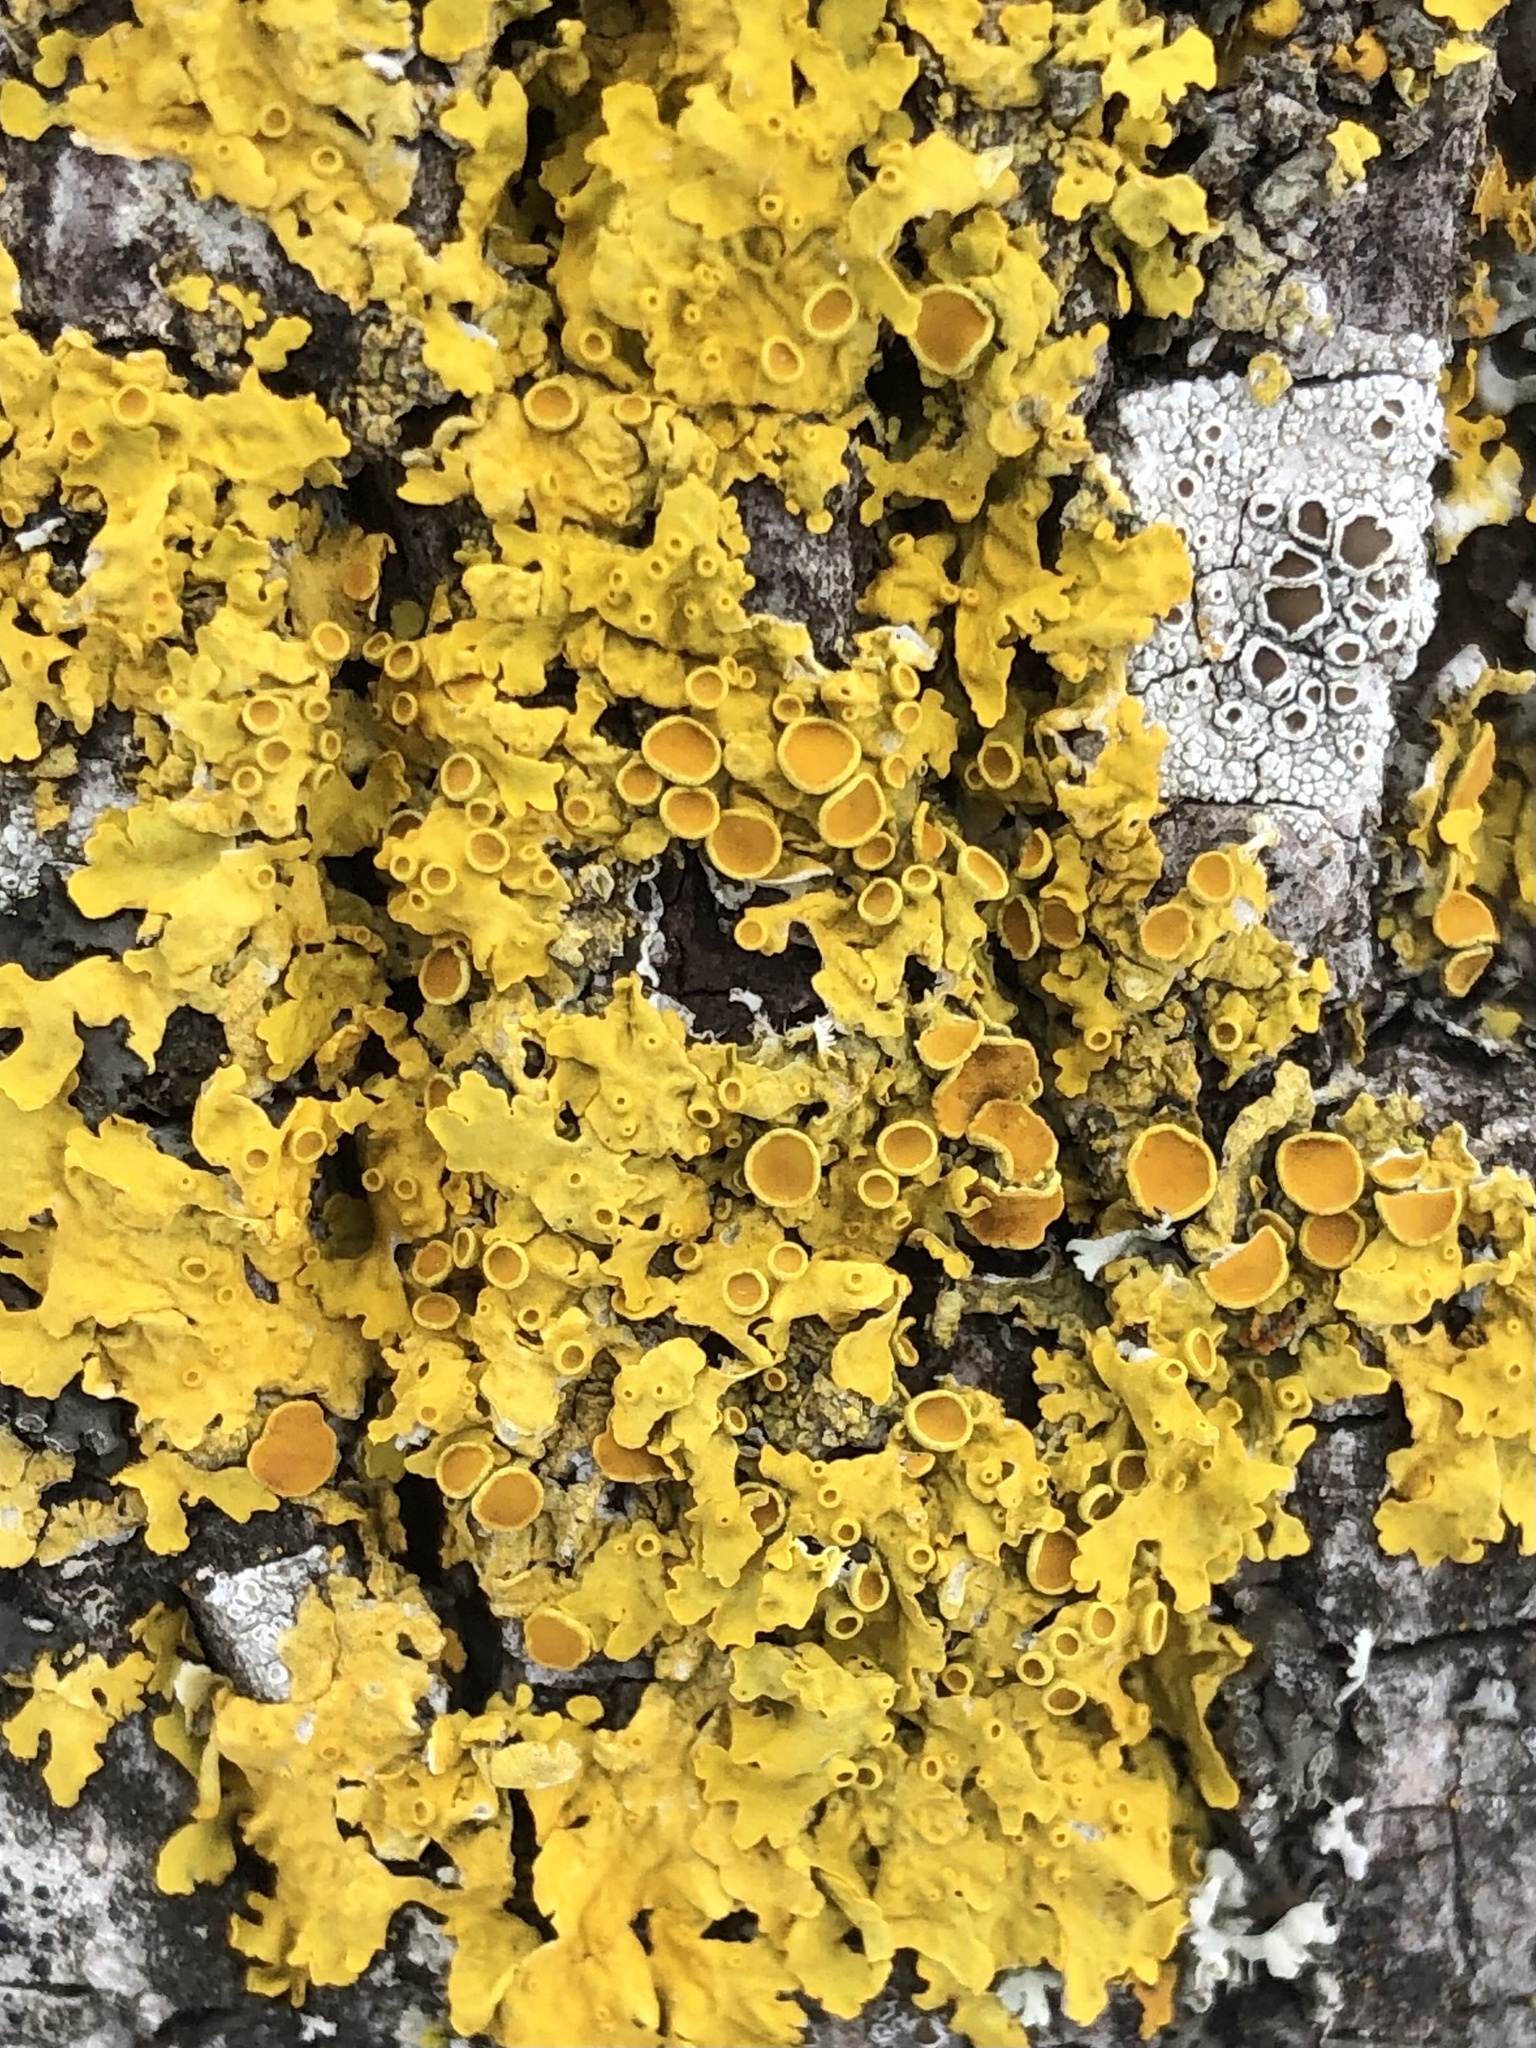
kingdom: Fungi
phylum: Ascomycota
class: Lecanoromycetes
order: Teloschistales
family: Teloschistaceae
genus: Xanthoria
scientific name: Xanthoria parietina
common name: Common orange lichen
